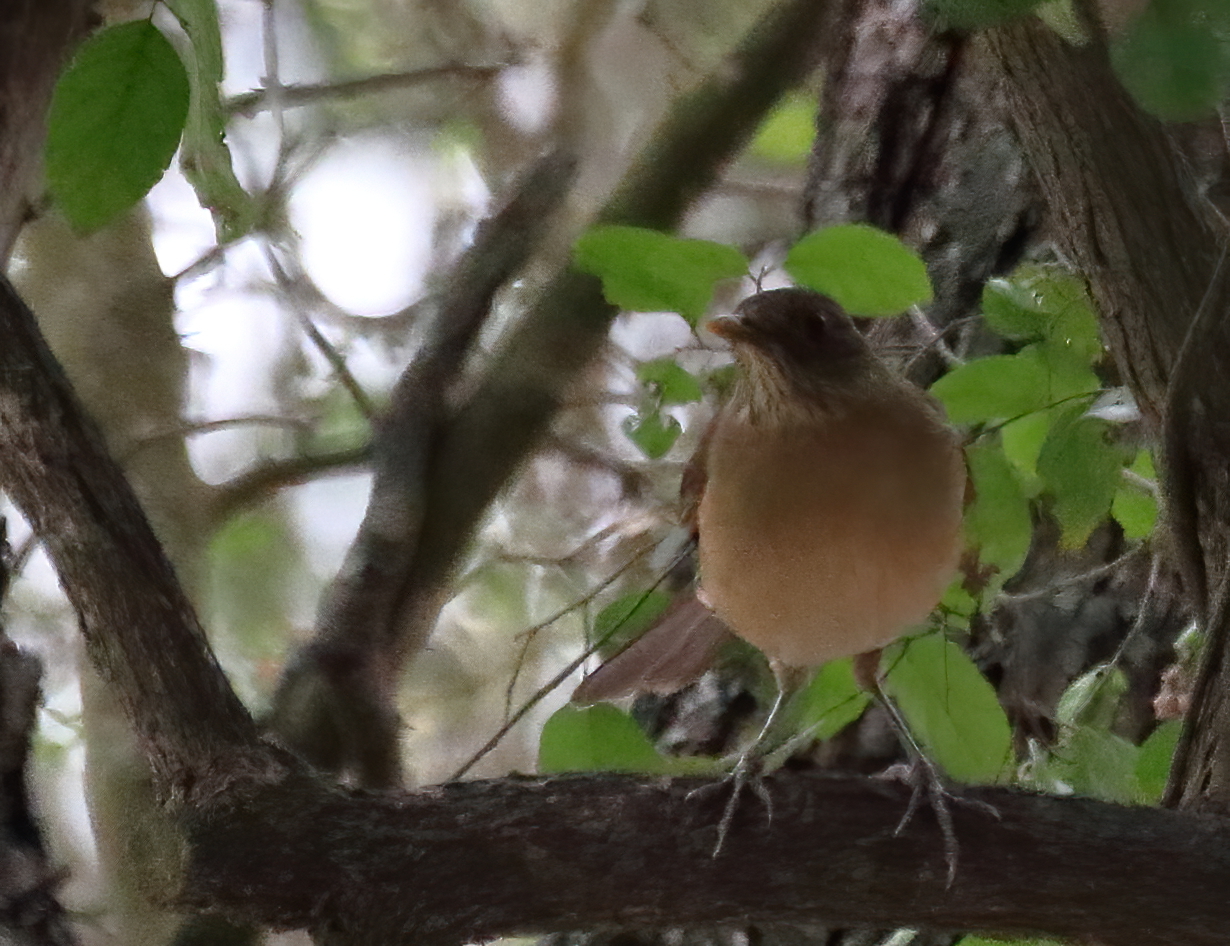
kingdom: Animalia
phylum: Chordata
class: Aves
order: Passeriformes
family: Turdidae
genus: Turdus
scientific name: Turdus grayi
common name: Clay-colored thrush
